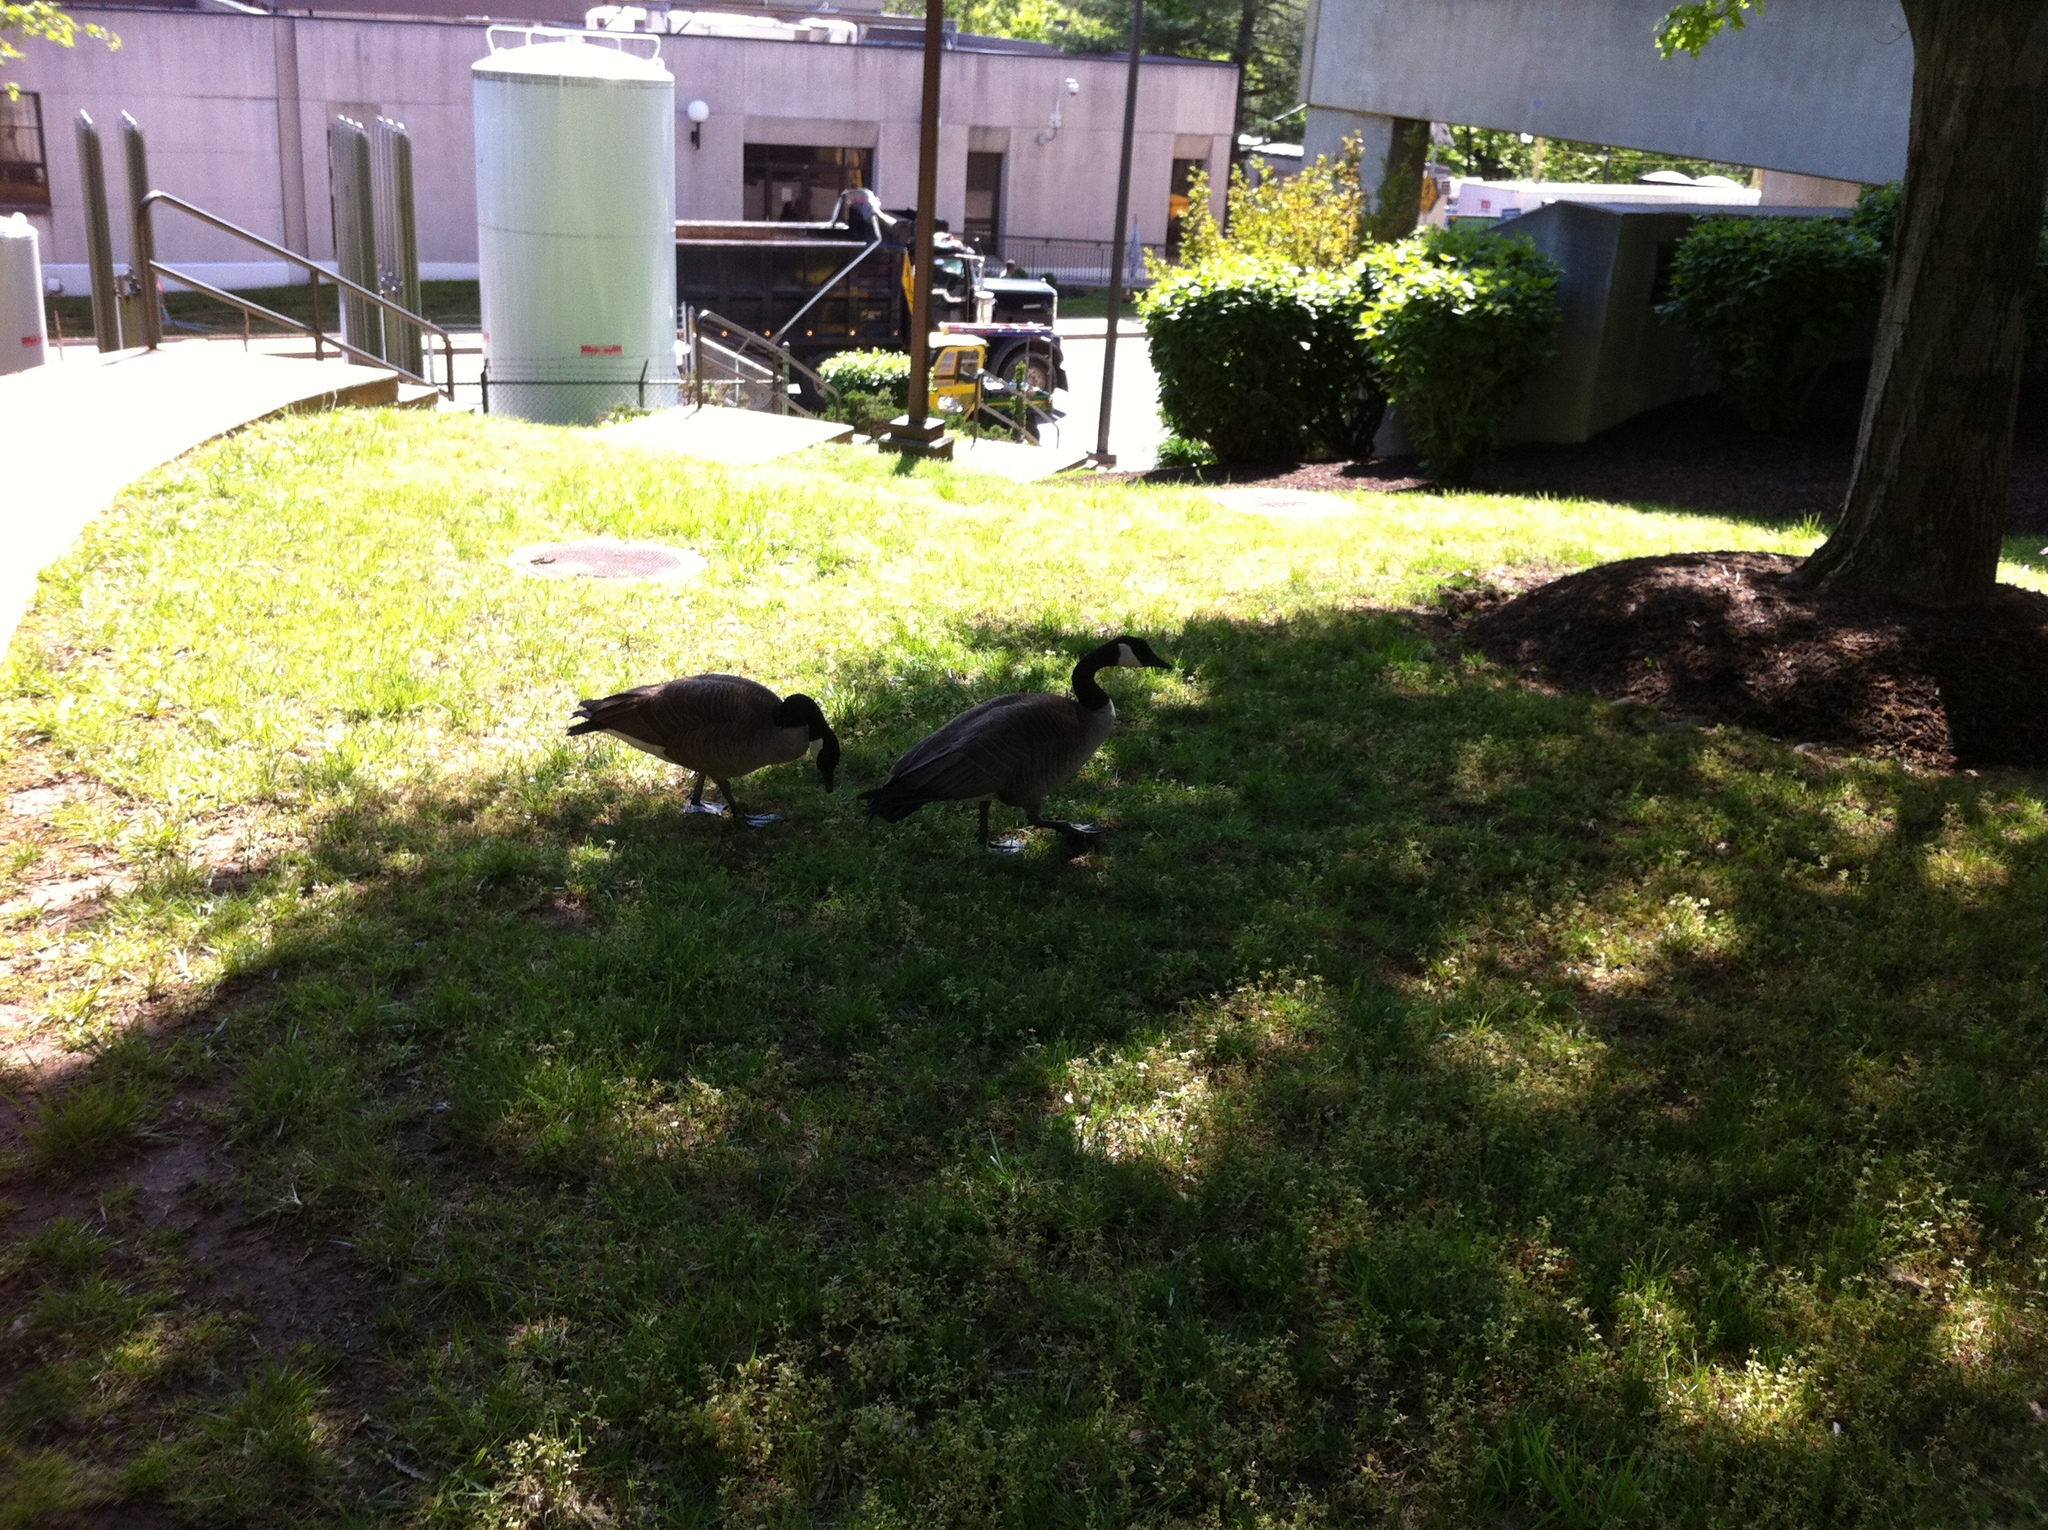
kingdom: Animalia
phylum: Chordata
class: Aves
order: Anseriformes
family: Anatidae
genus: Branta
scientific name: Branta canadensis
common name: Canada goose
